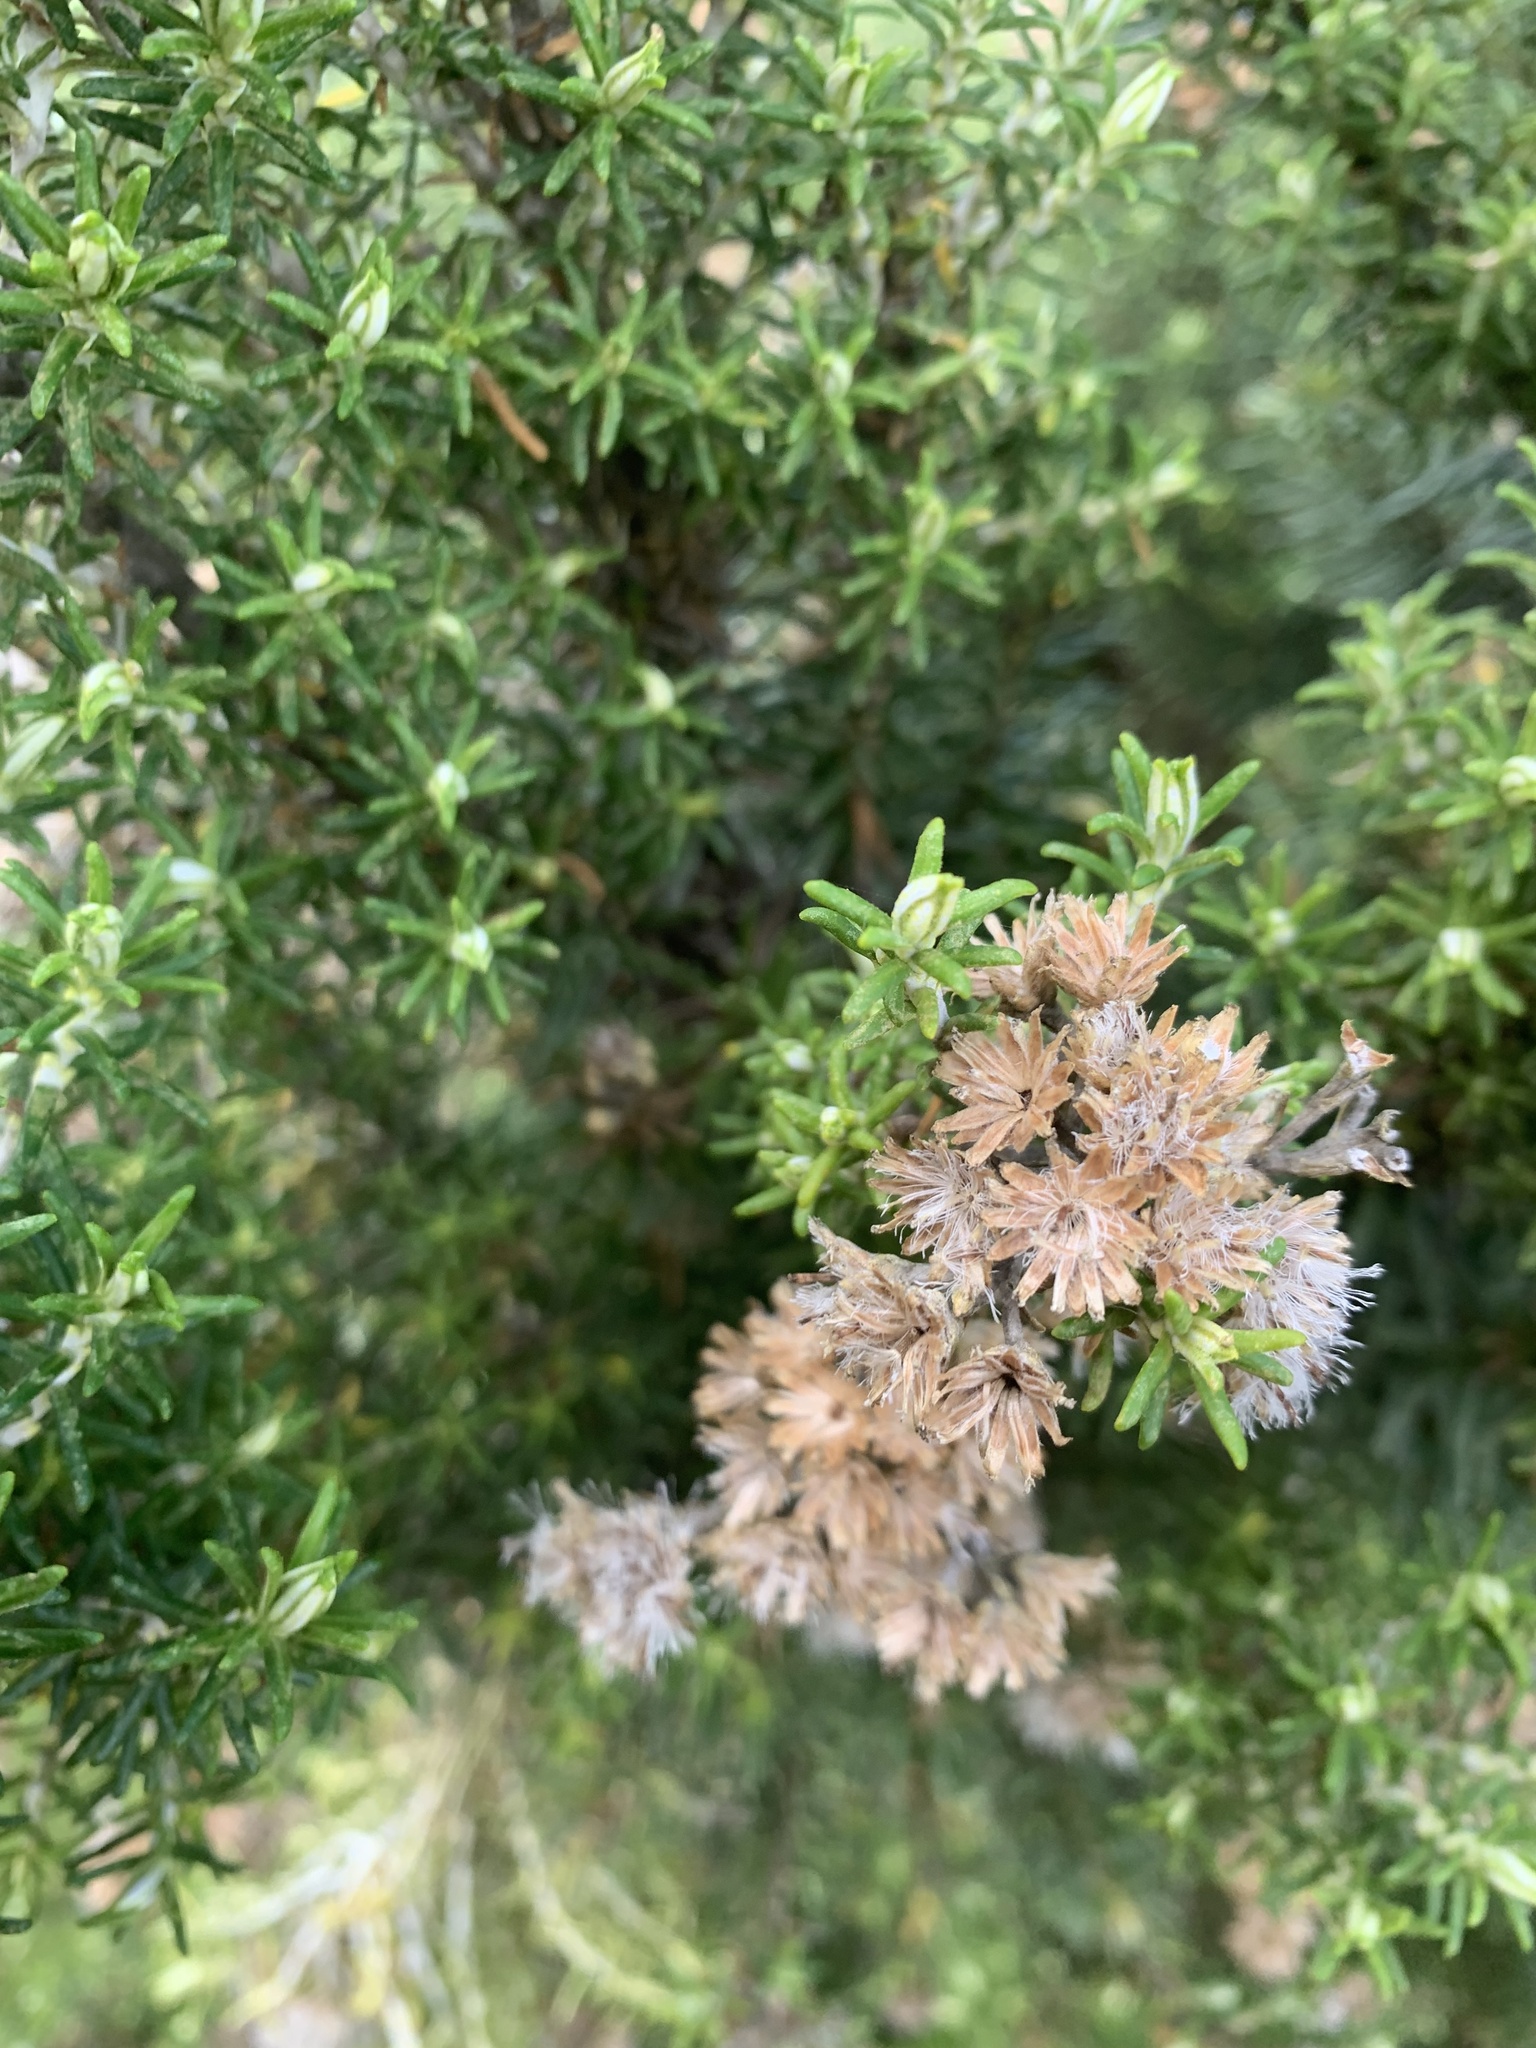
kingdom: Plantae
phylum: Tracheophyta
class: Magnoliopsida
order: Asterales
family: Asteraceae
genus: Ozothamnus
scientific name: Ozothamnus cinereus
